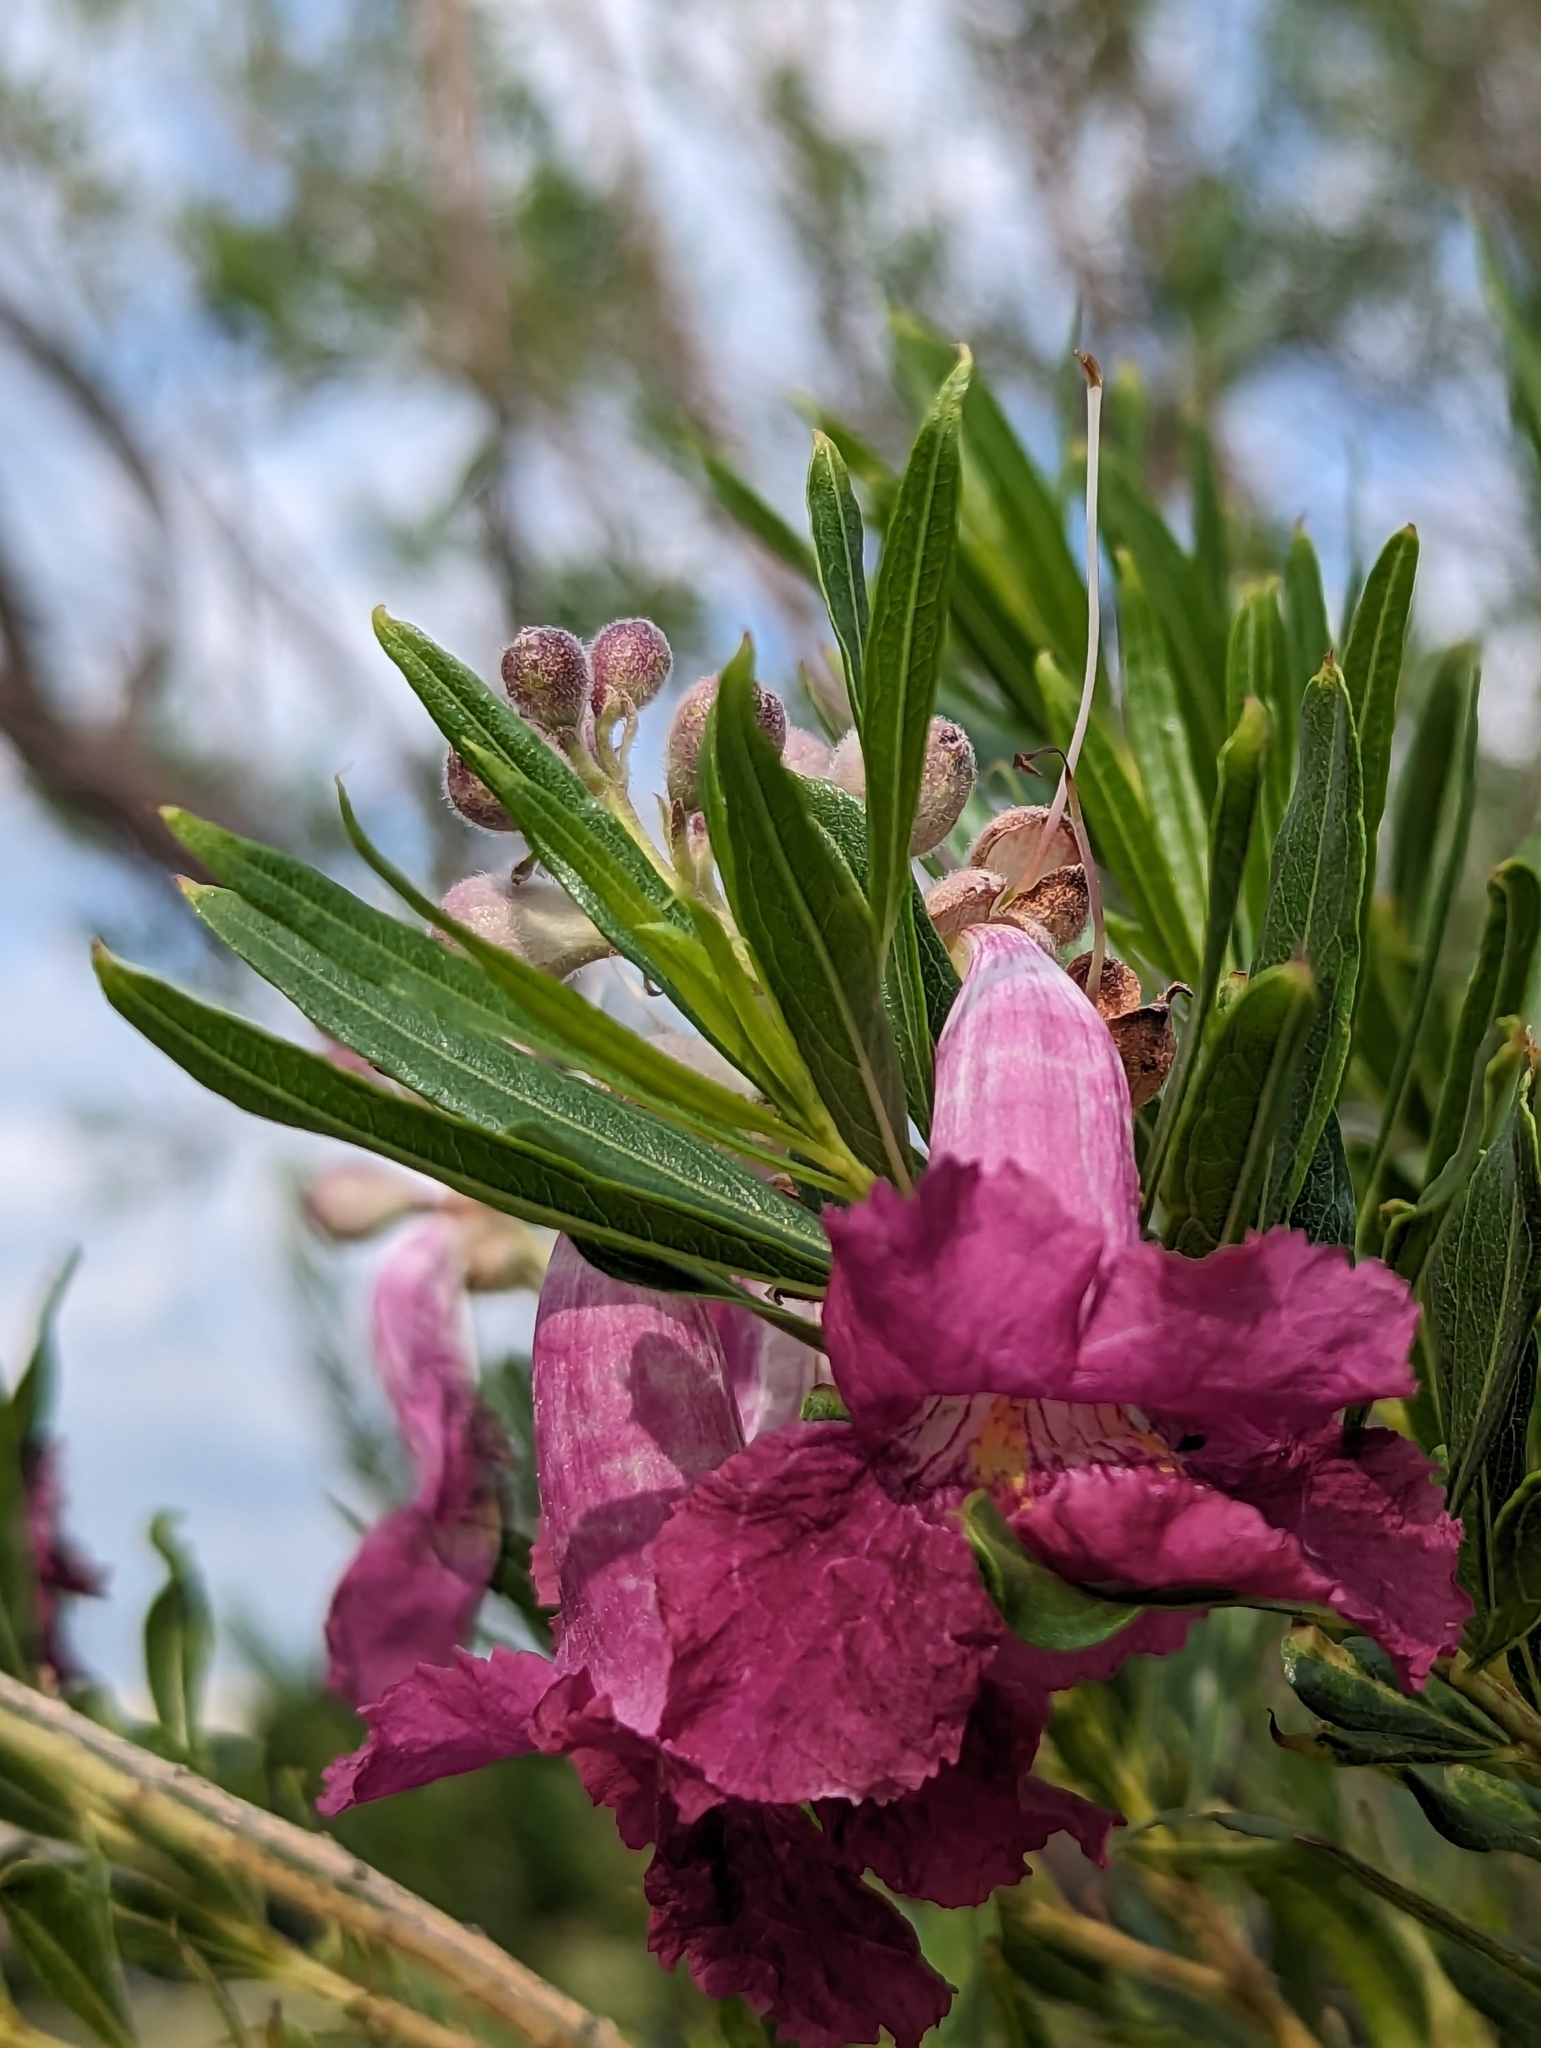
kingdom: Plantae
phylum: Tracheophyta
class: Magnoliopsida
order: Lamiales
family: Bignoniaceae
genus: Chilopsis
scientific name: Chilopsis linearis
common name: Desert-willow
